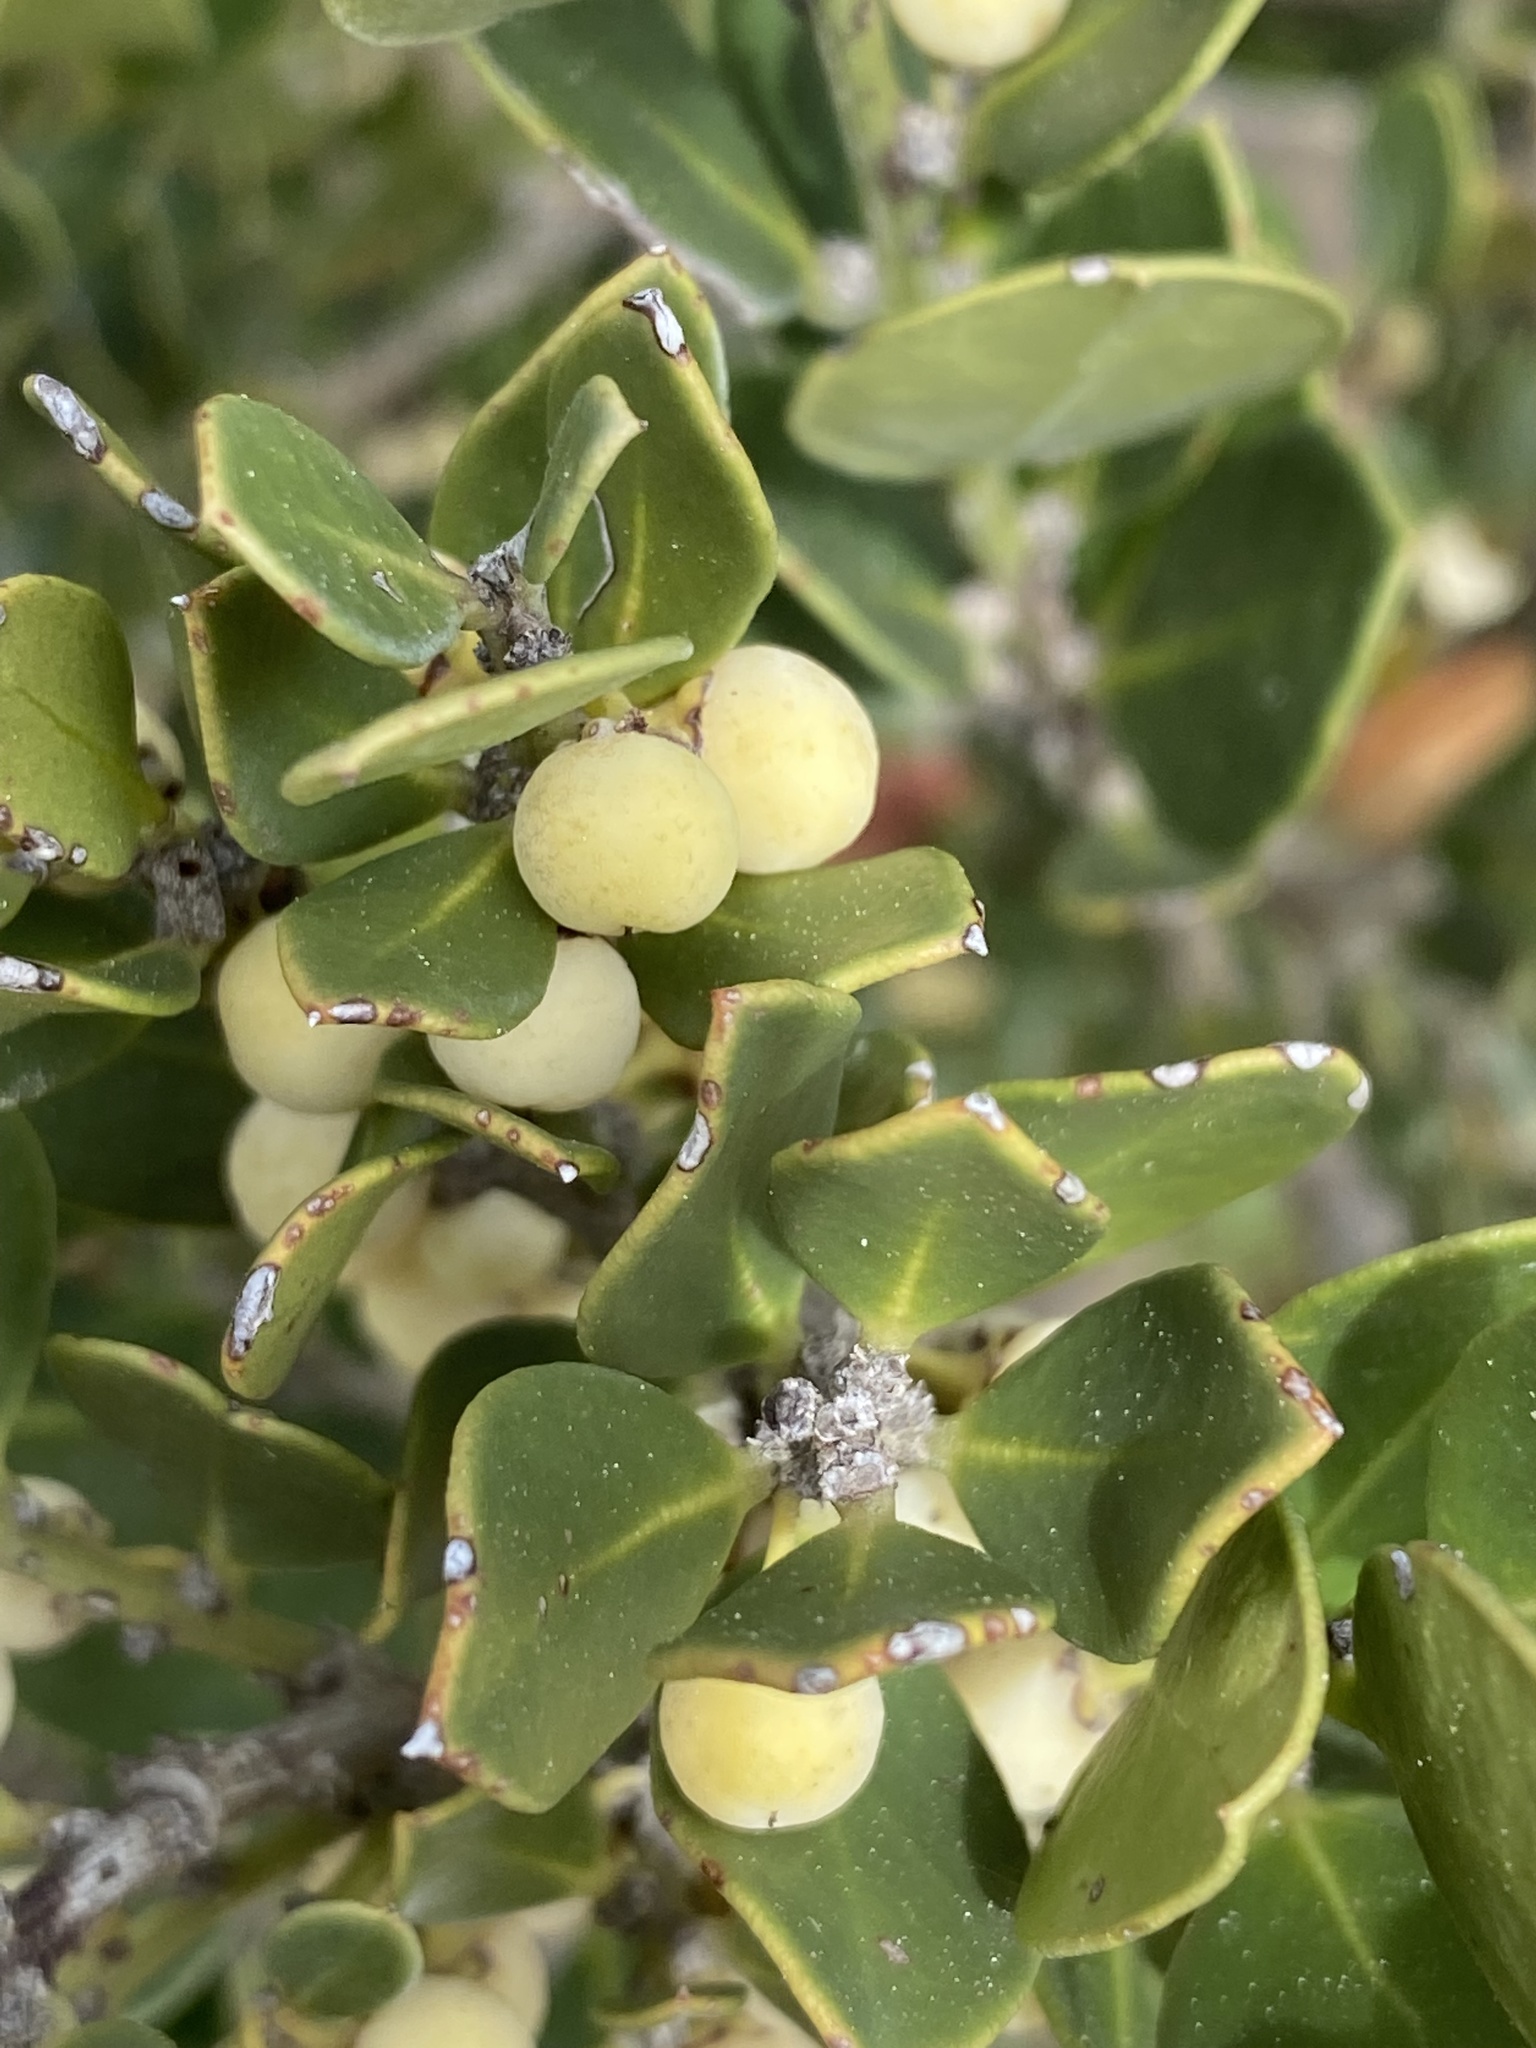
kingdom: Plantae
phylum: Tracheophyta
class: Magnoliopsida
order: Celastrales
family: Celastraceae
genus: Robsonodendron
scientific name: Robsonodendron maritimum
